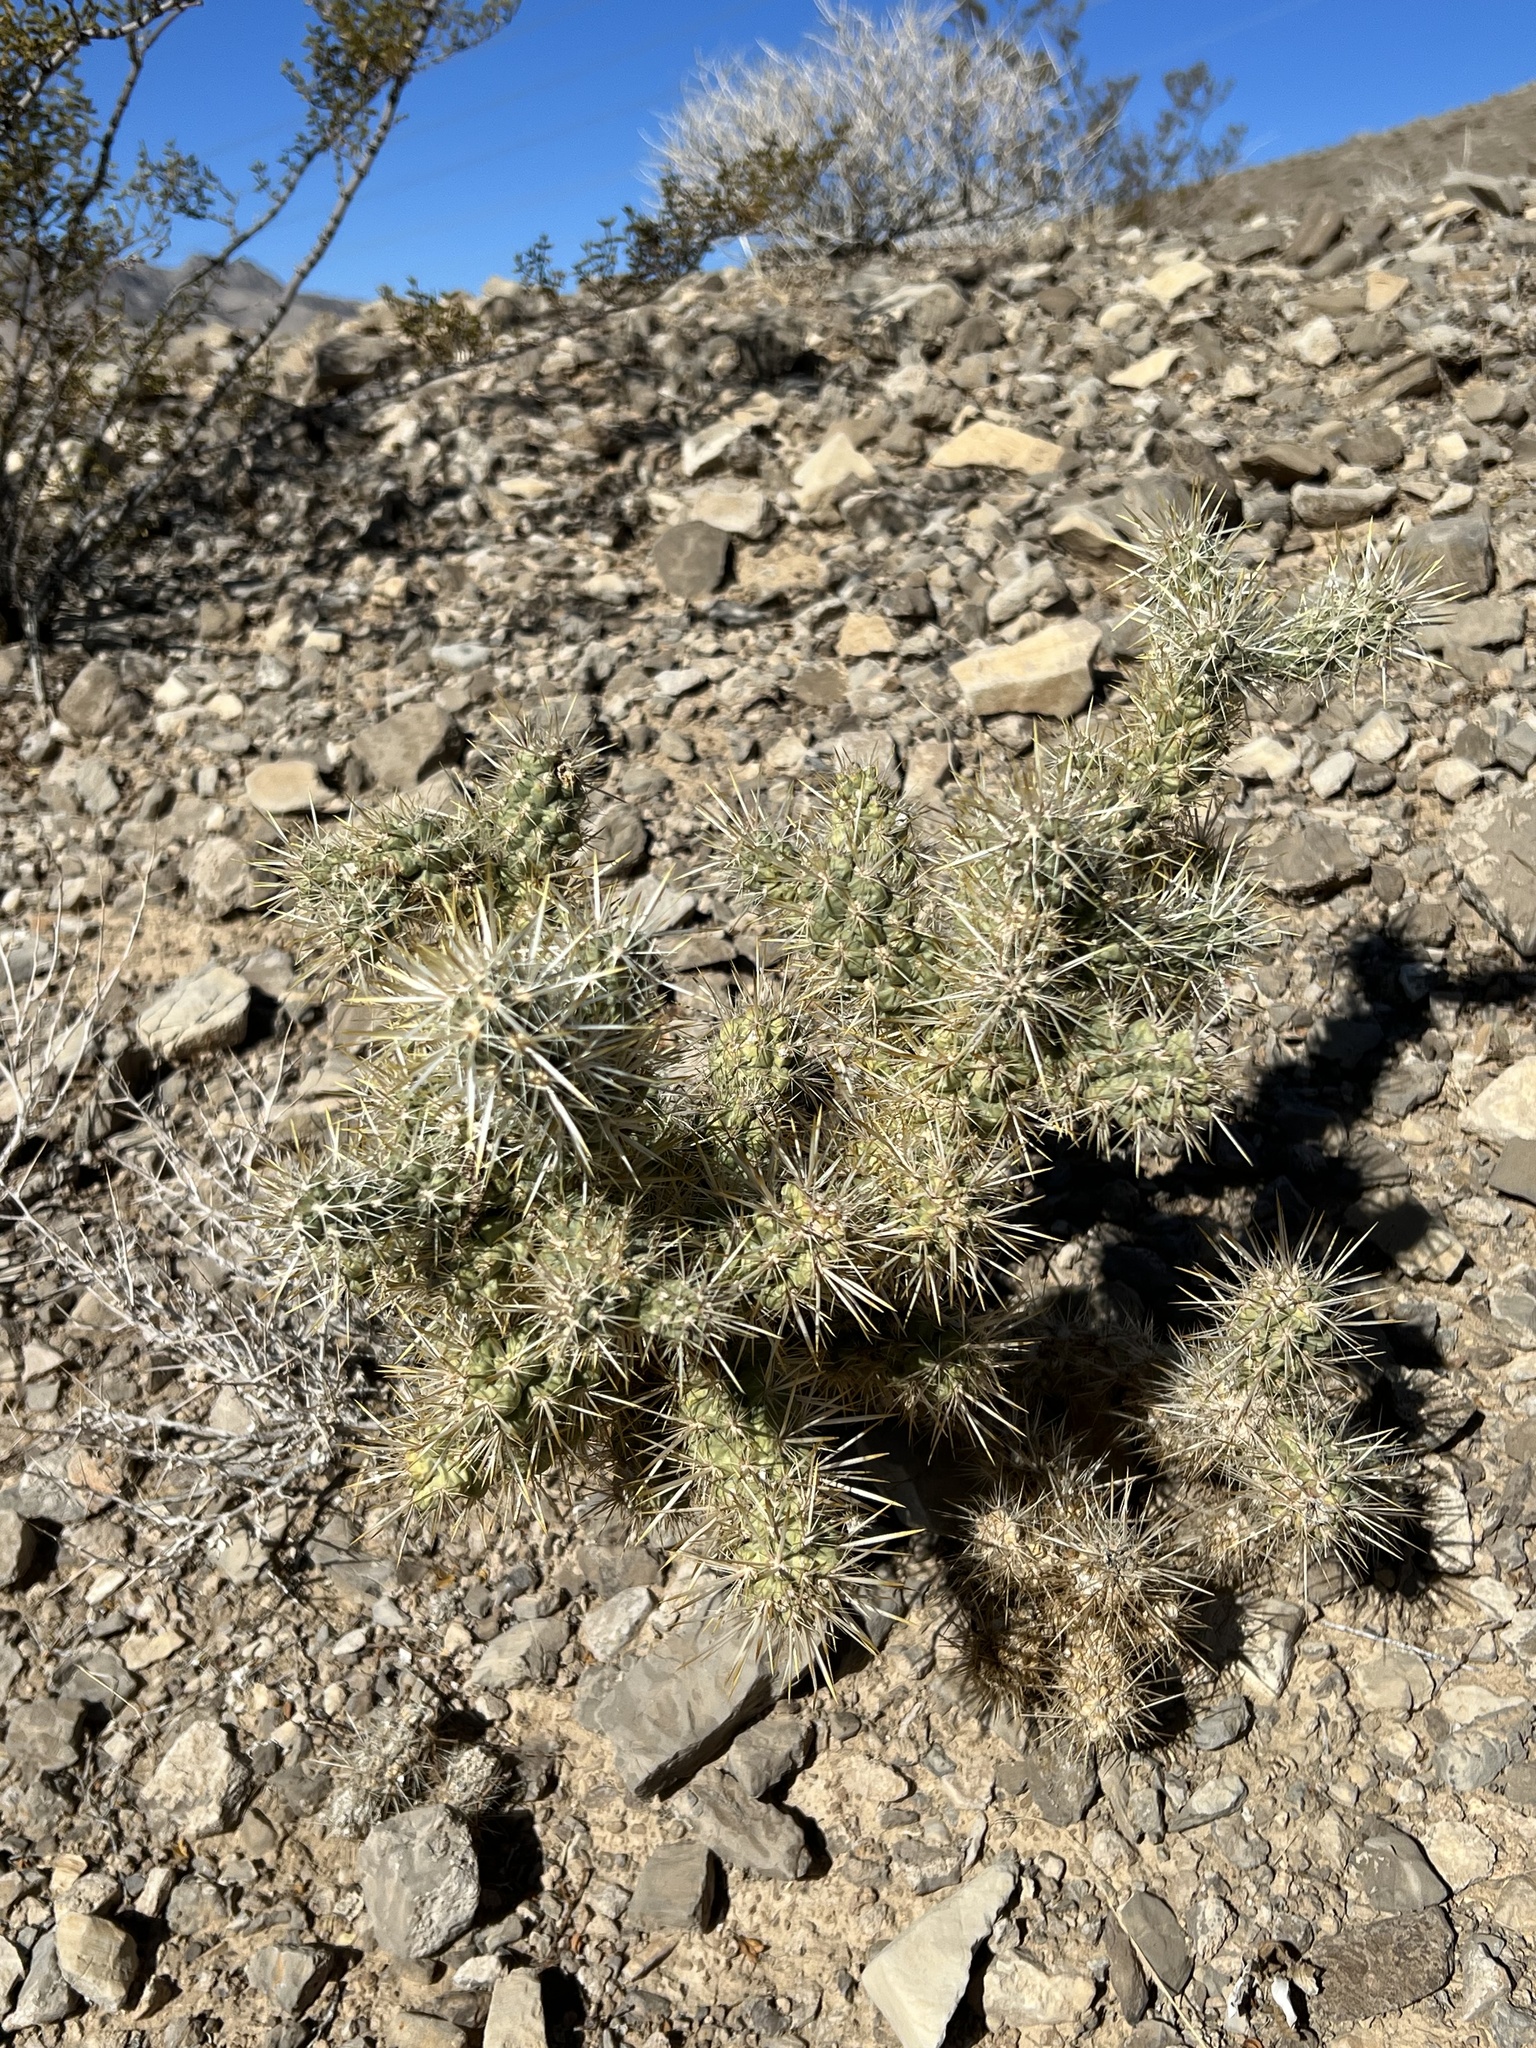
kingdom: Plantae
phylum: Tracheophyta
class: Magnoliopsida
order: Caryophyllales
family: Cactaceae
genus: Cylindropuntia
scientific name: Cylindropuntia echinocarpa
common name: Ground cholla
